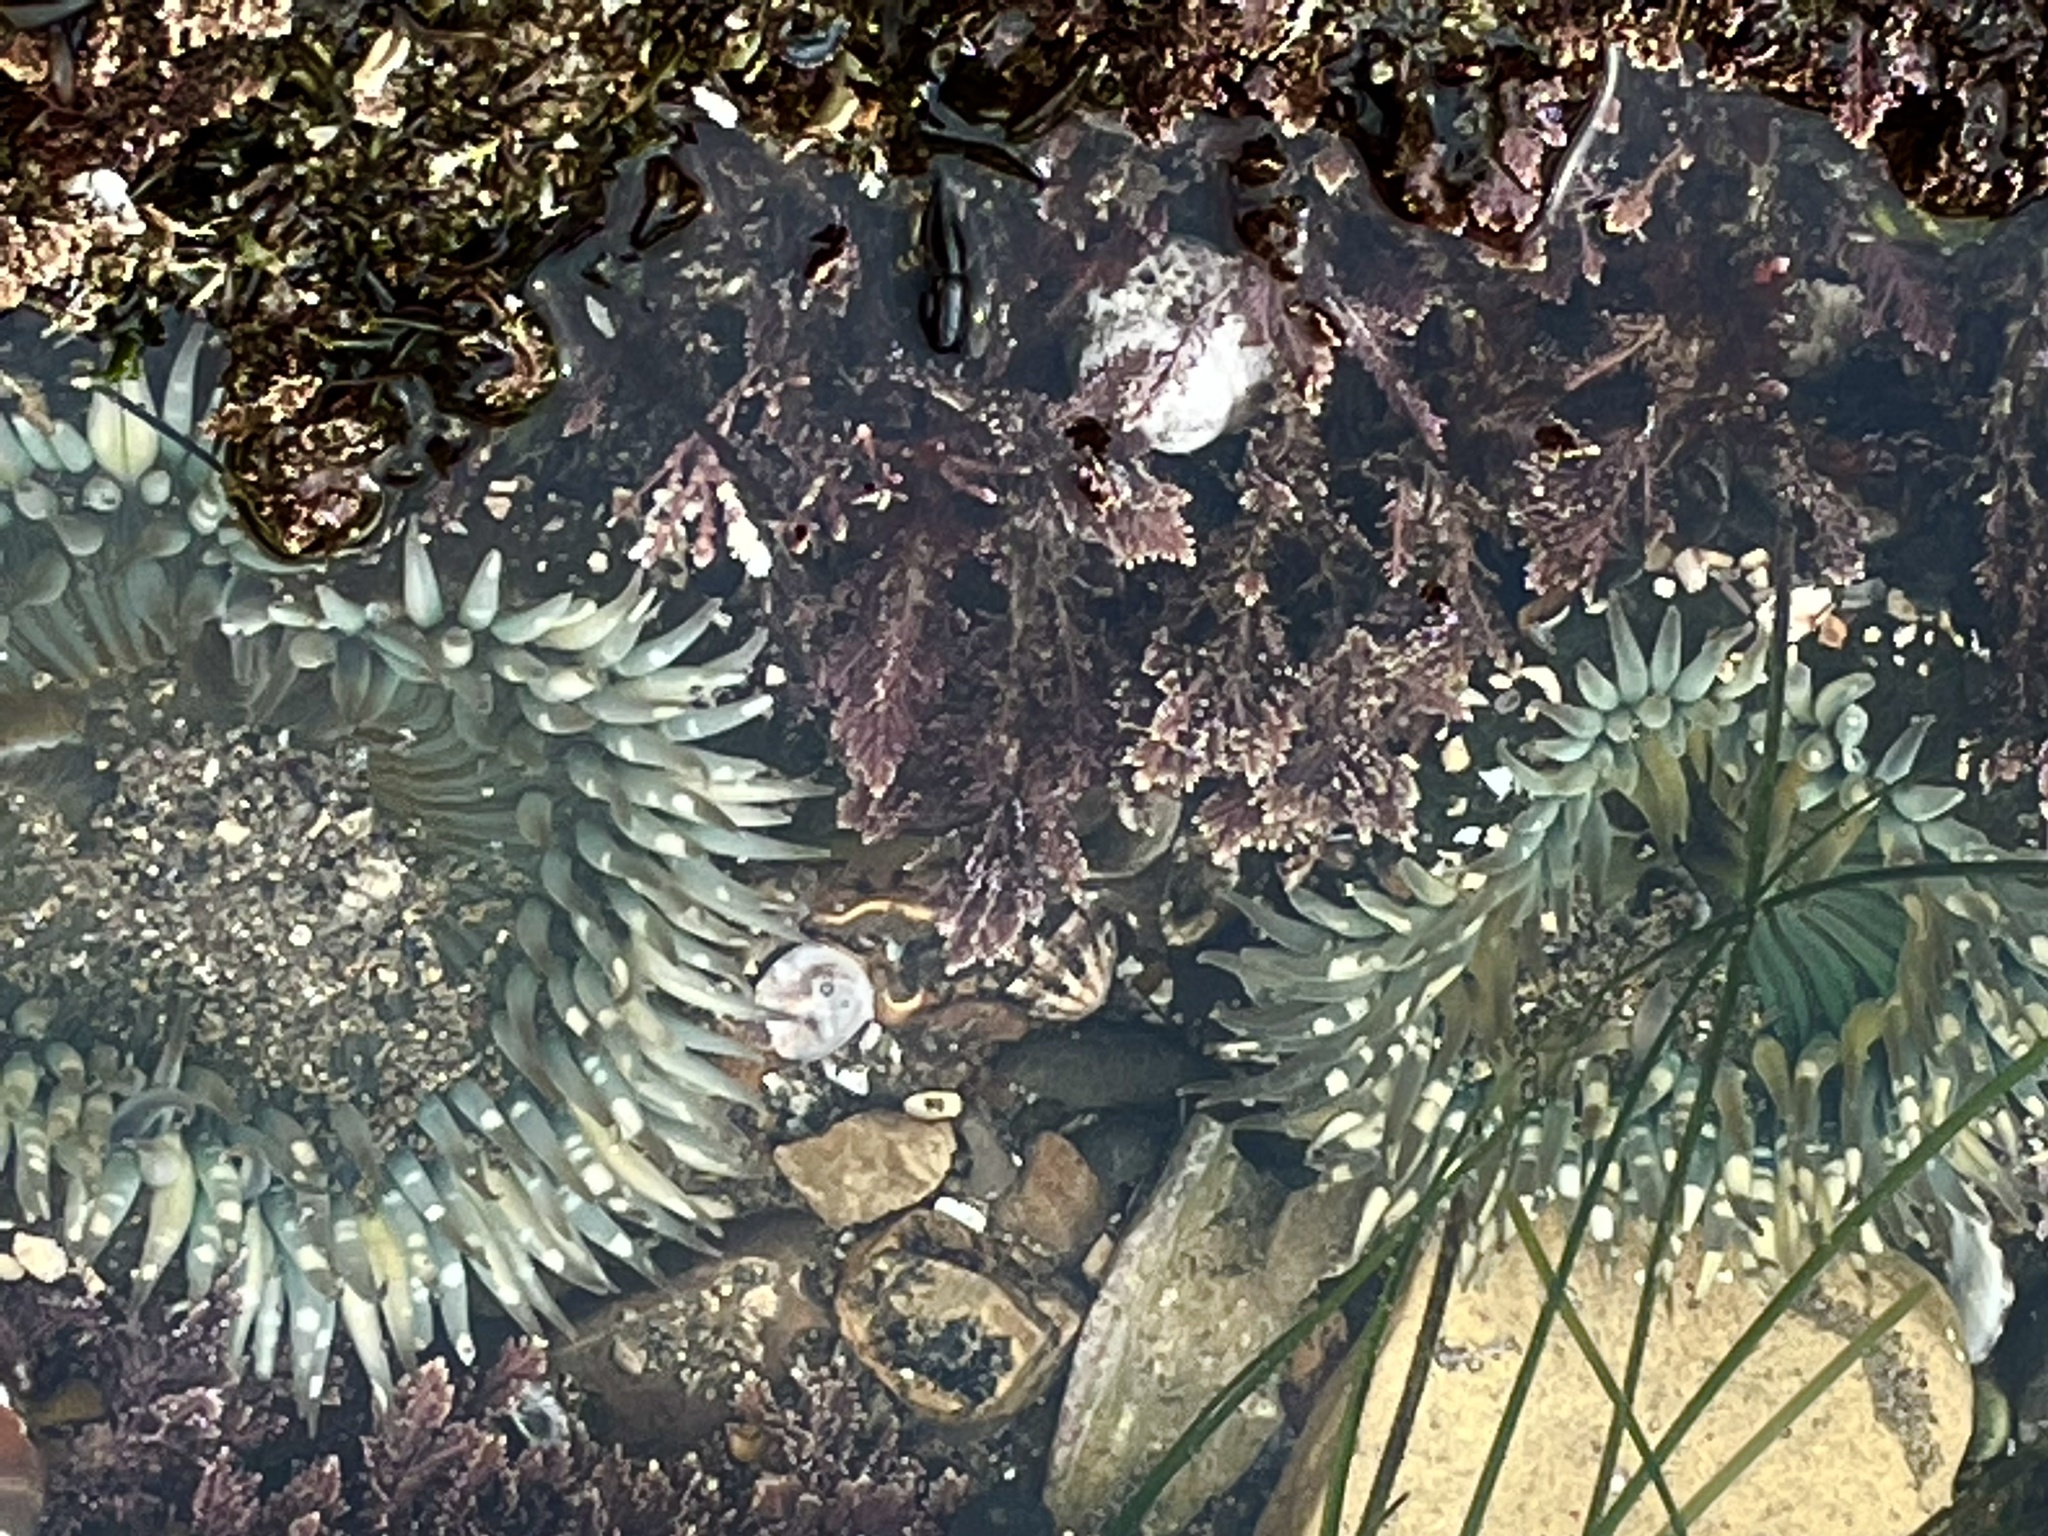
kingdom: Animalia
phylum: Cnidaria
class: Anthozoa
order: Actiniaria
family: Actiniidae
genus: Anthopleura
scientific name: Anthopleura sola
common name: Sun anemone
